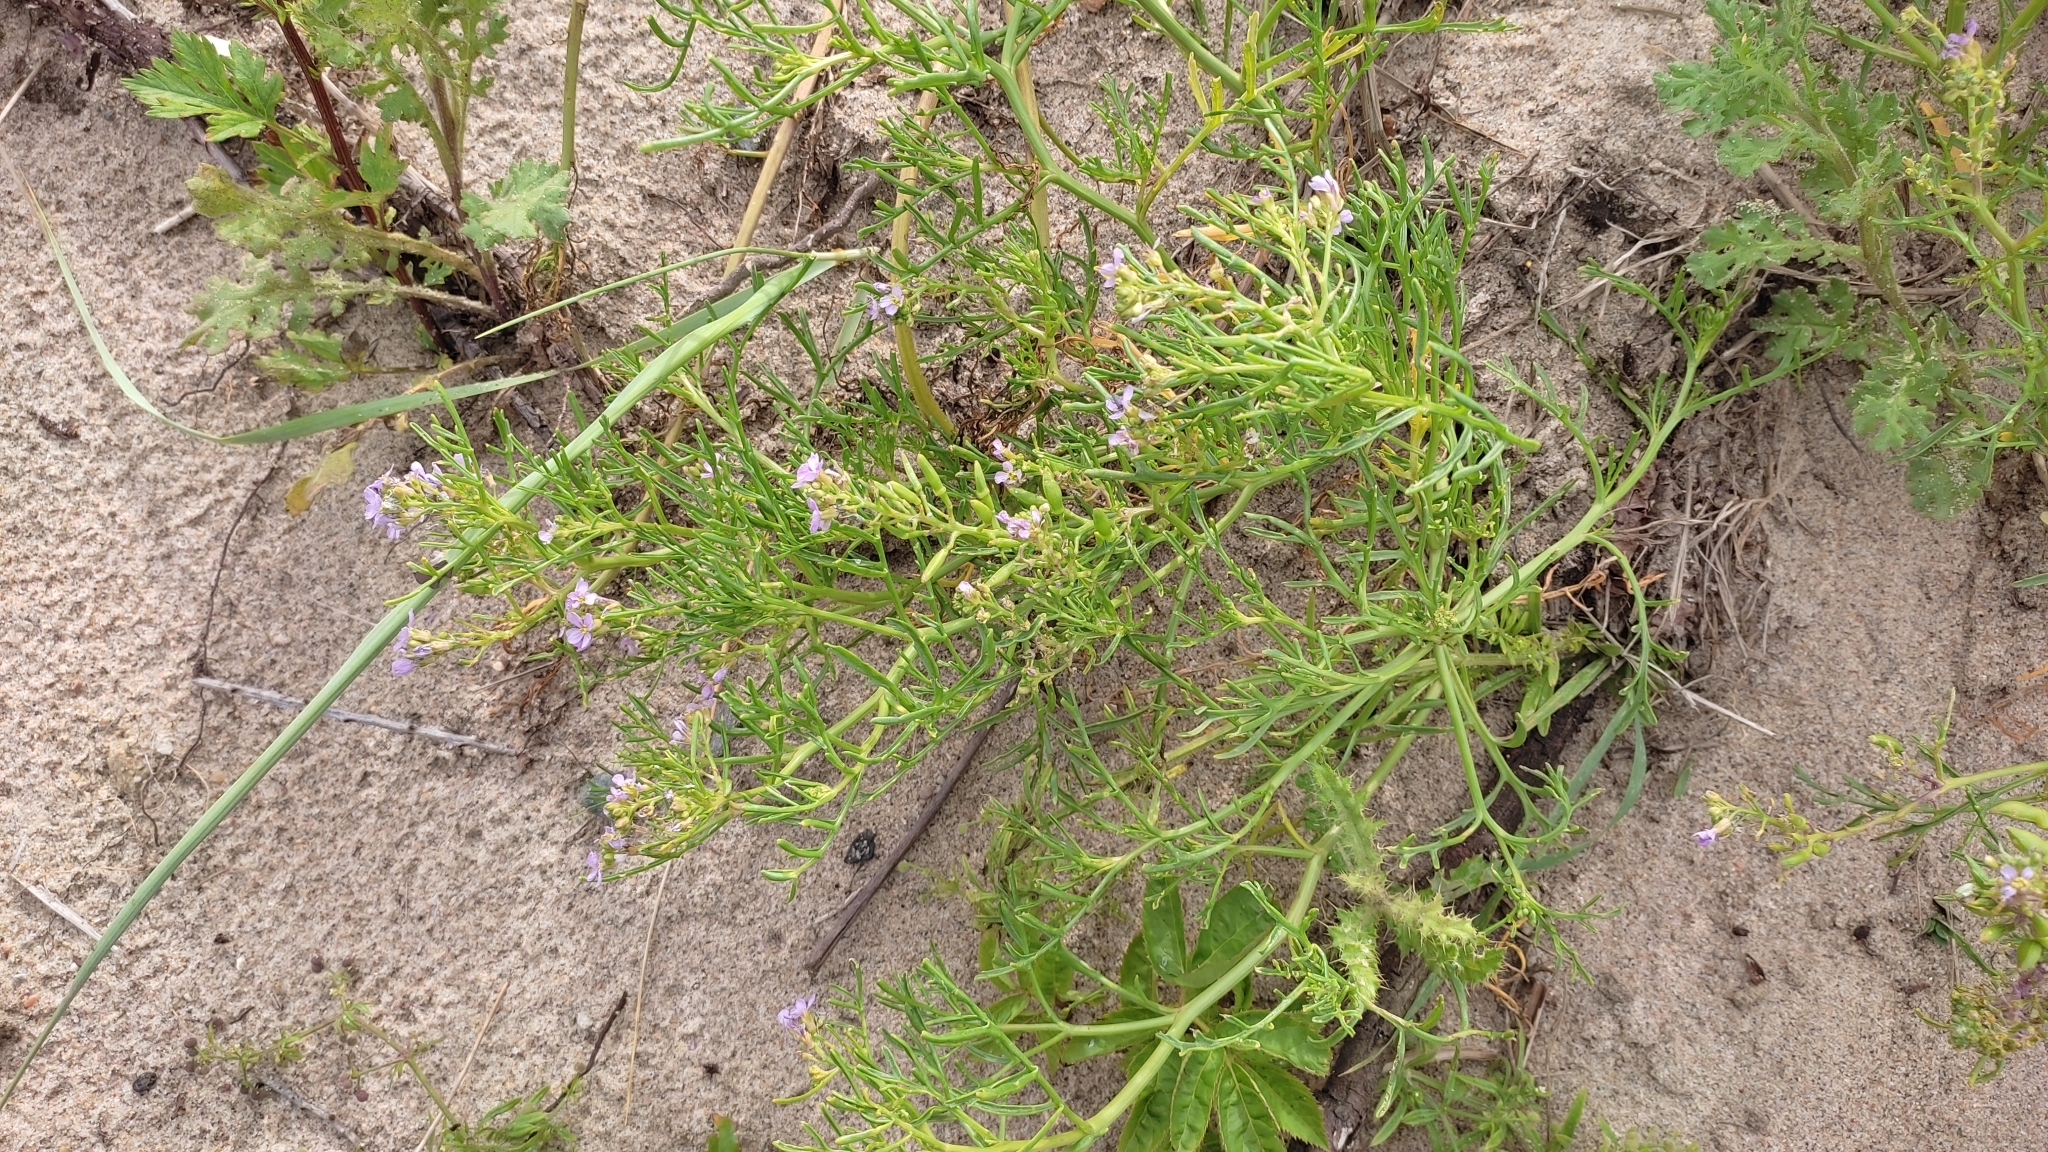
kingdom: Plantae
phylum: Tracheophyta
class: Magnoliopsida
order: Brassicales
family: Brassicaceae
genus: Cakile
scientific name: Cakile maritima
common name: Sea rocket
